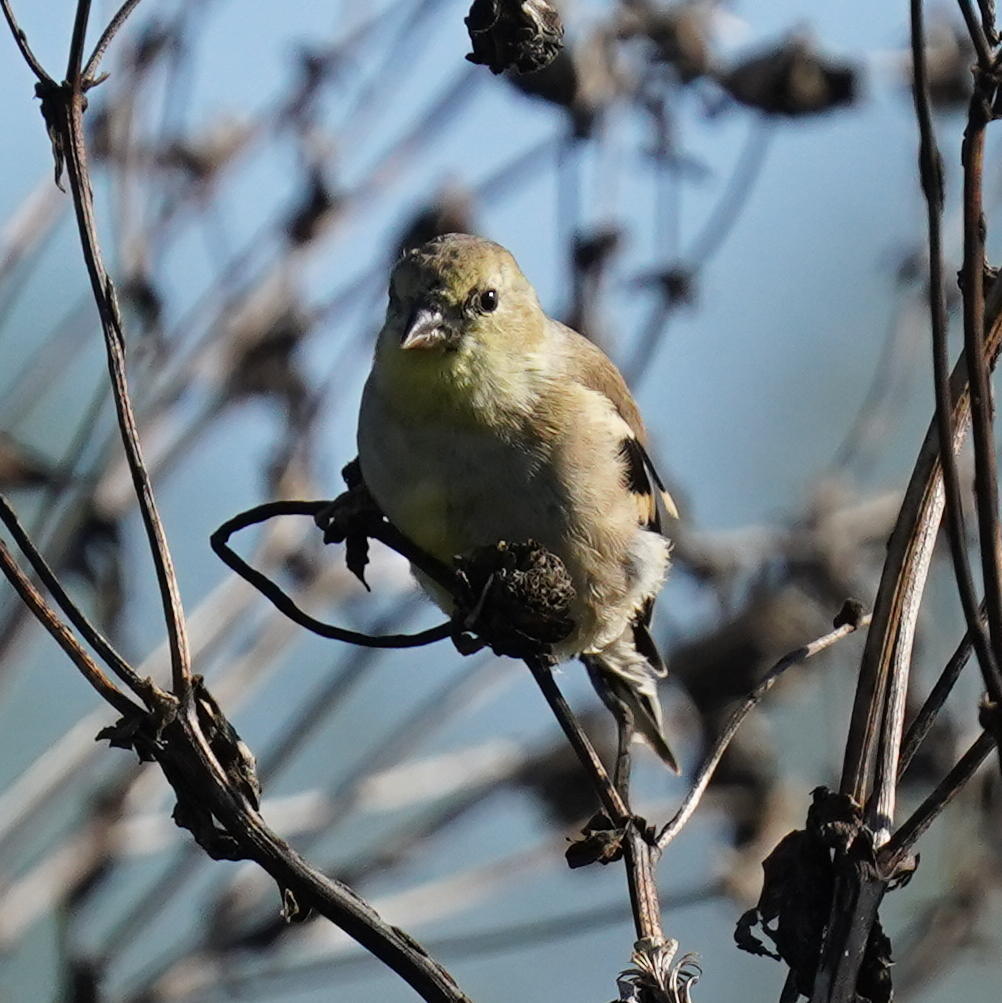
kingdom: Animalia
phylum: Chordata
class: Aves
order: Passeriformes
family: Fringillidae
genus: Spinus
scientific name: Spinus tristis
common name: American goldfinch
